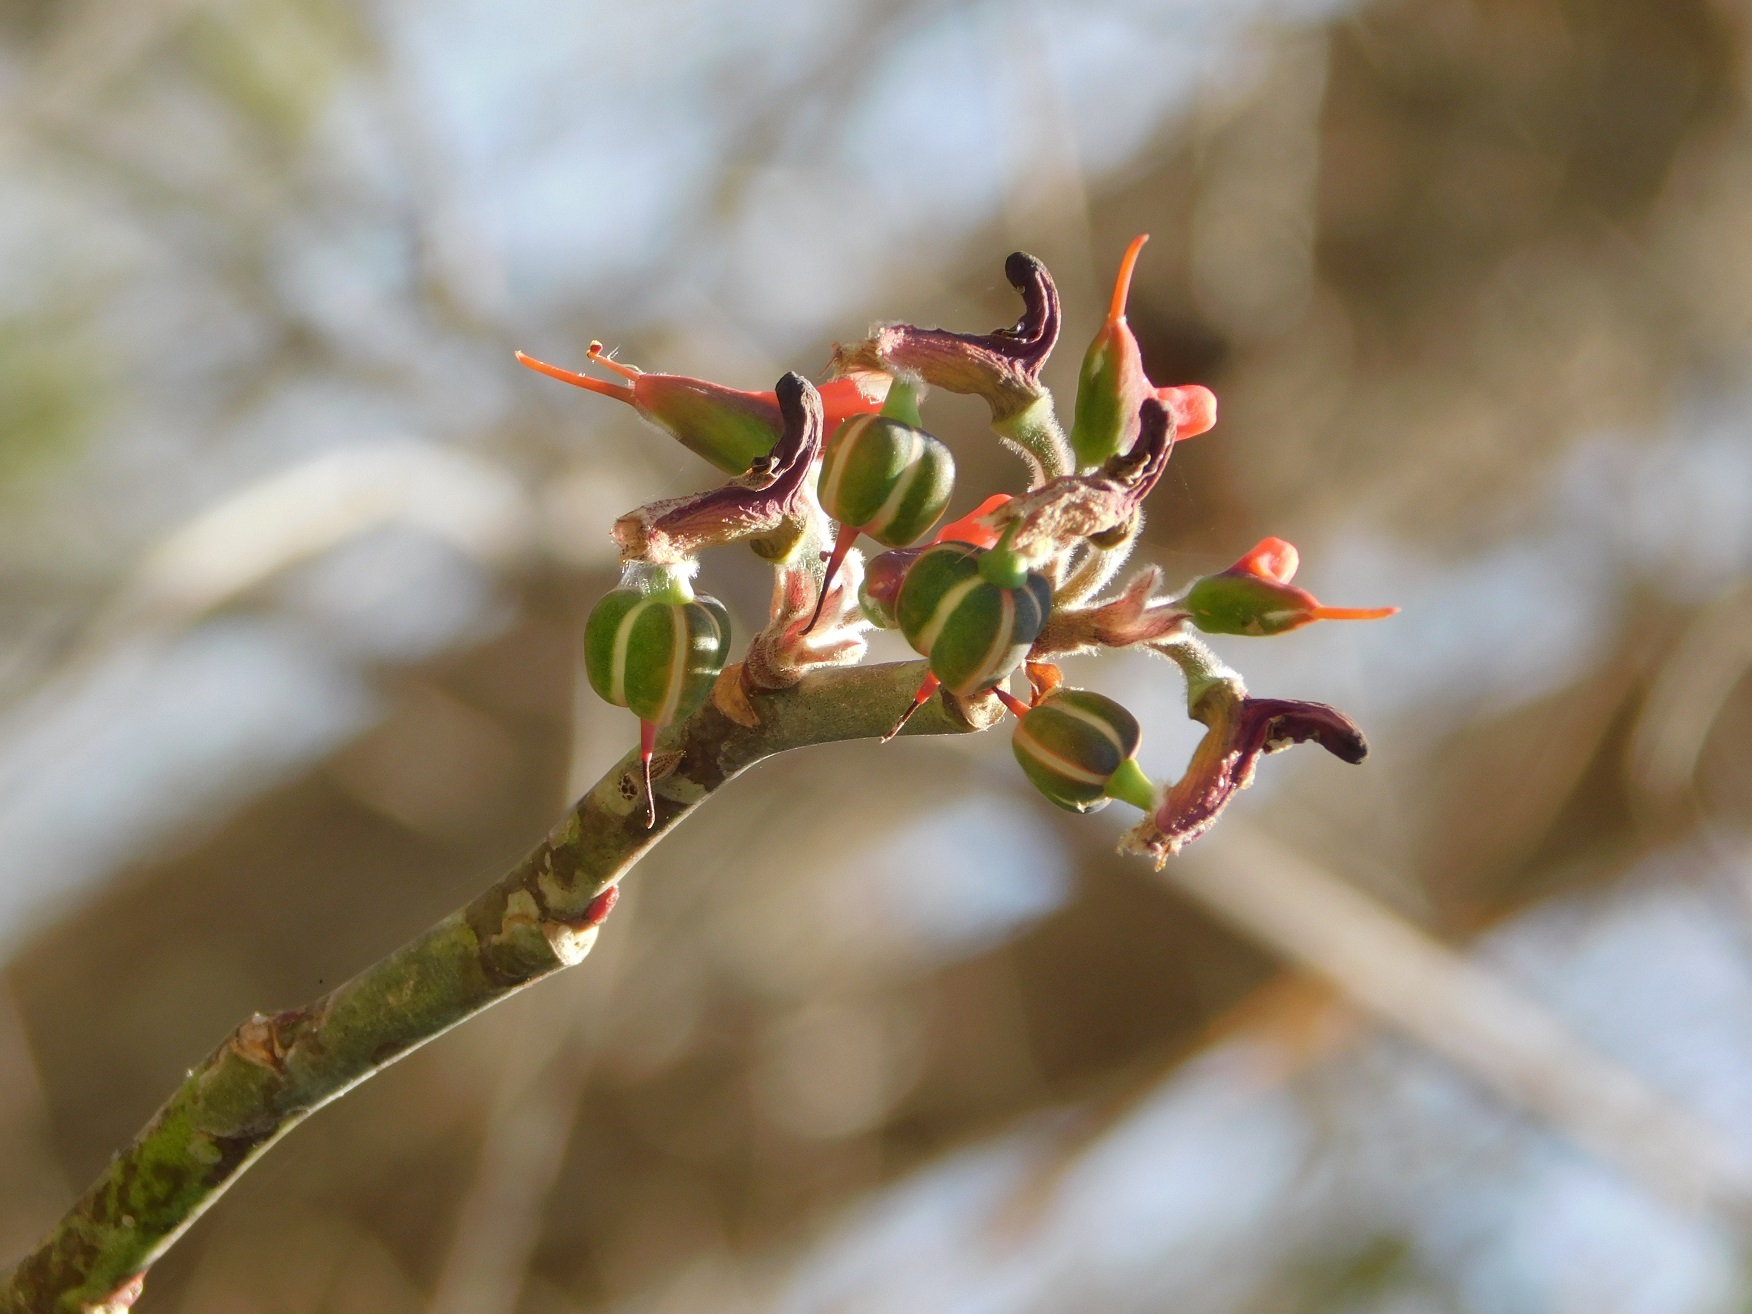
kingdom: Plantae
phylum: Tracheophyta
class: Magnoliopsida
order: Malpighiales
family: Euphorbiaceae
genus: Euphorbia
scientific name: Euphorbia calcarata
